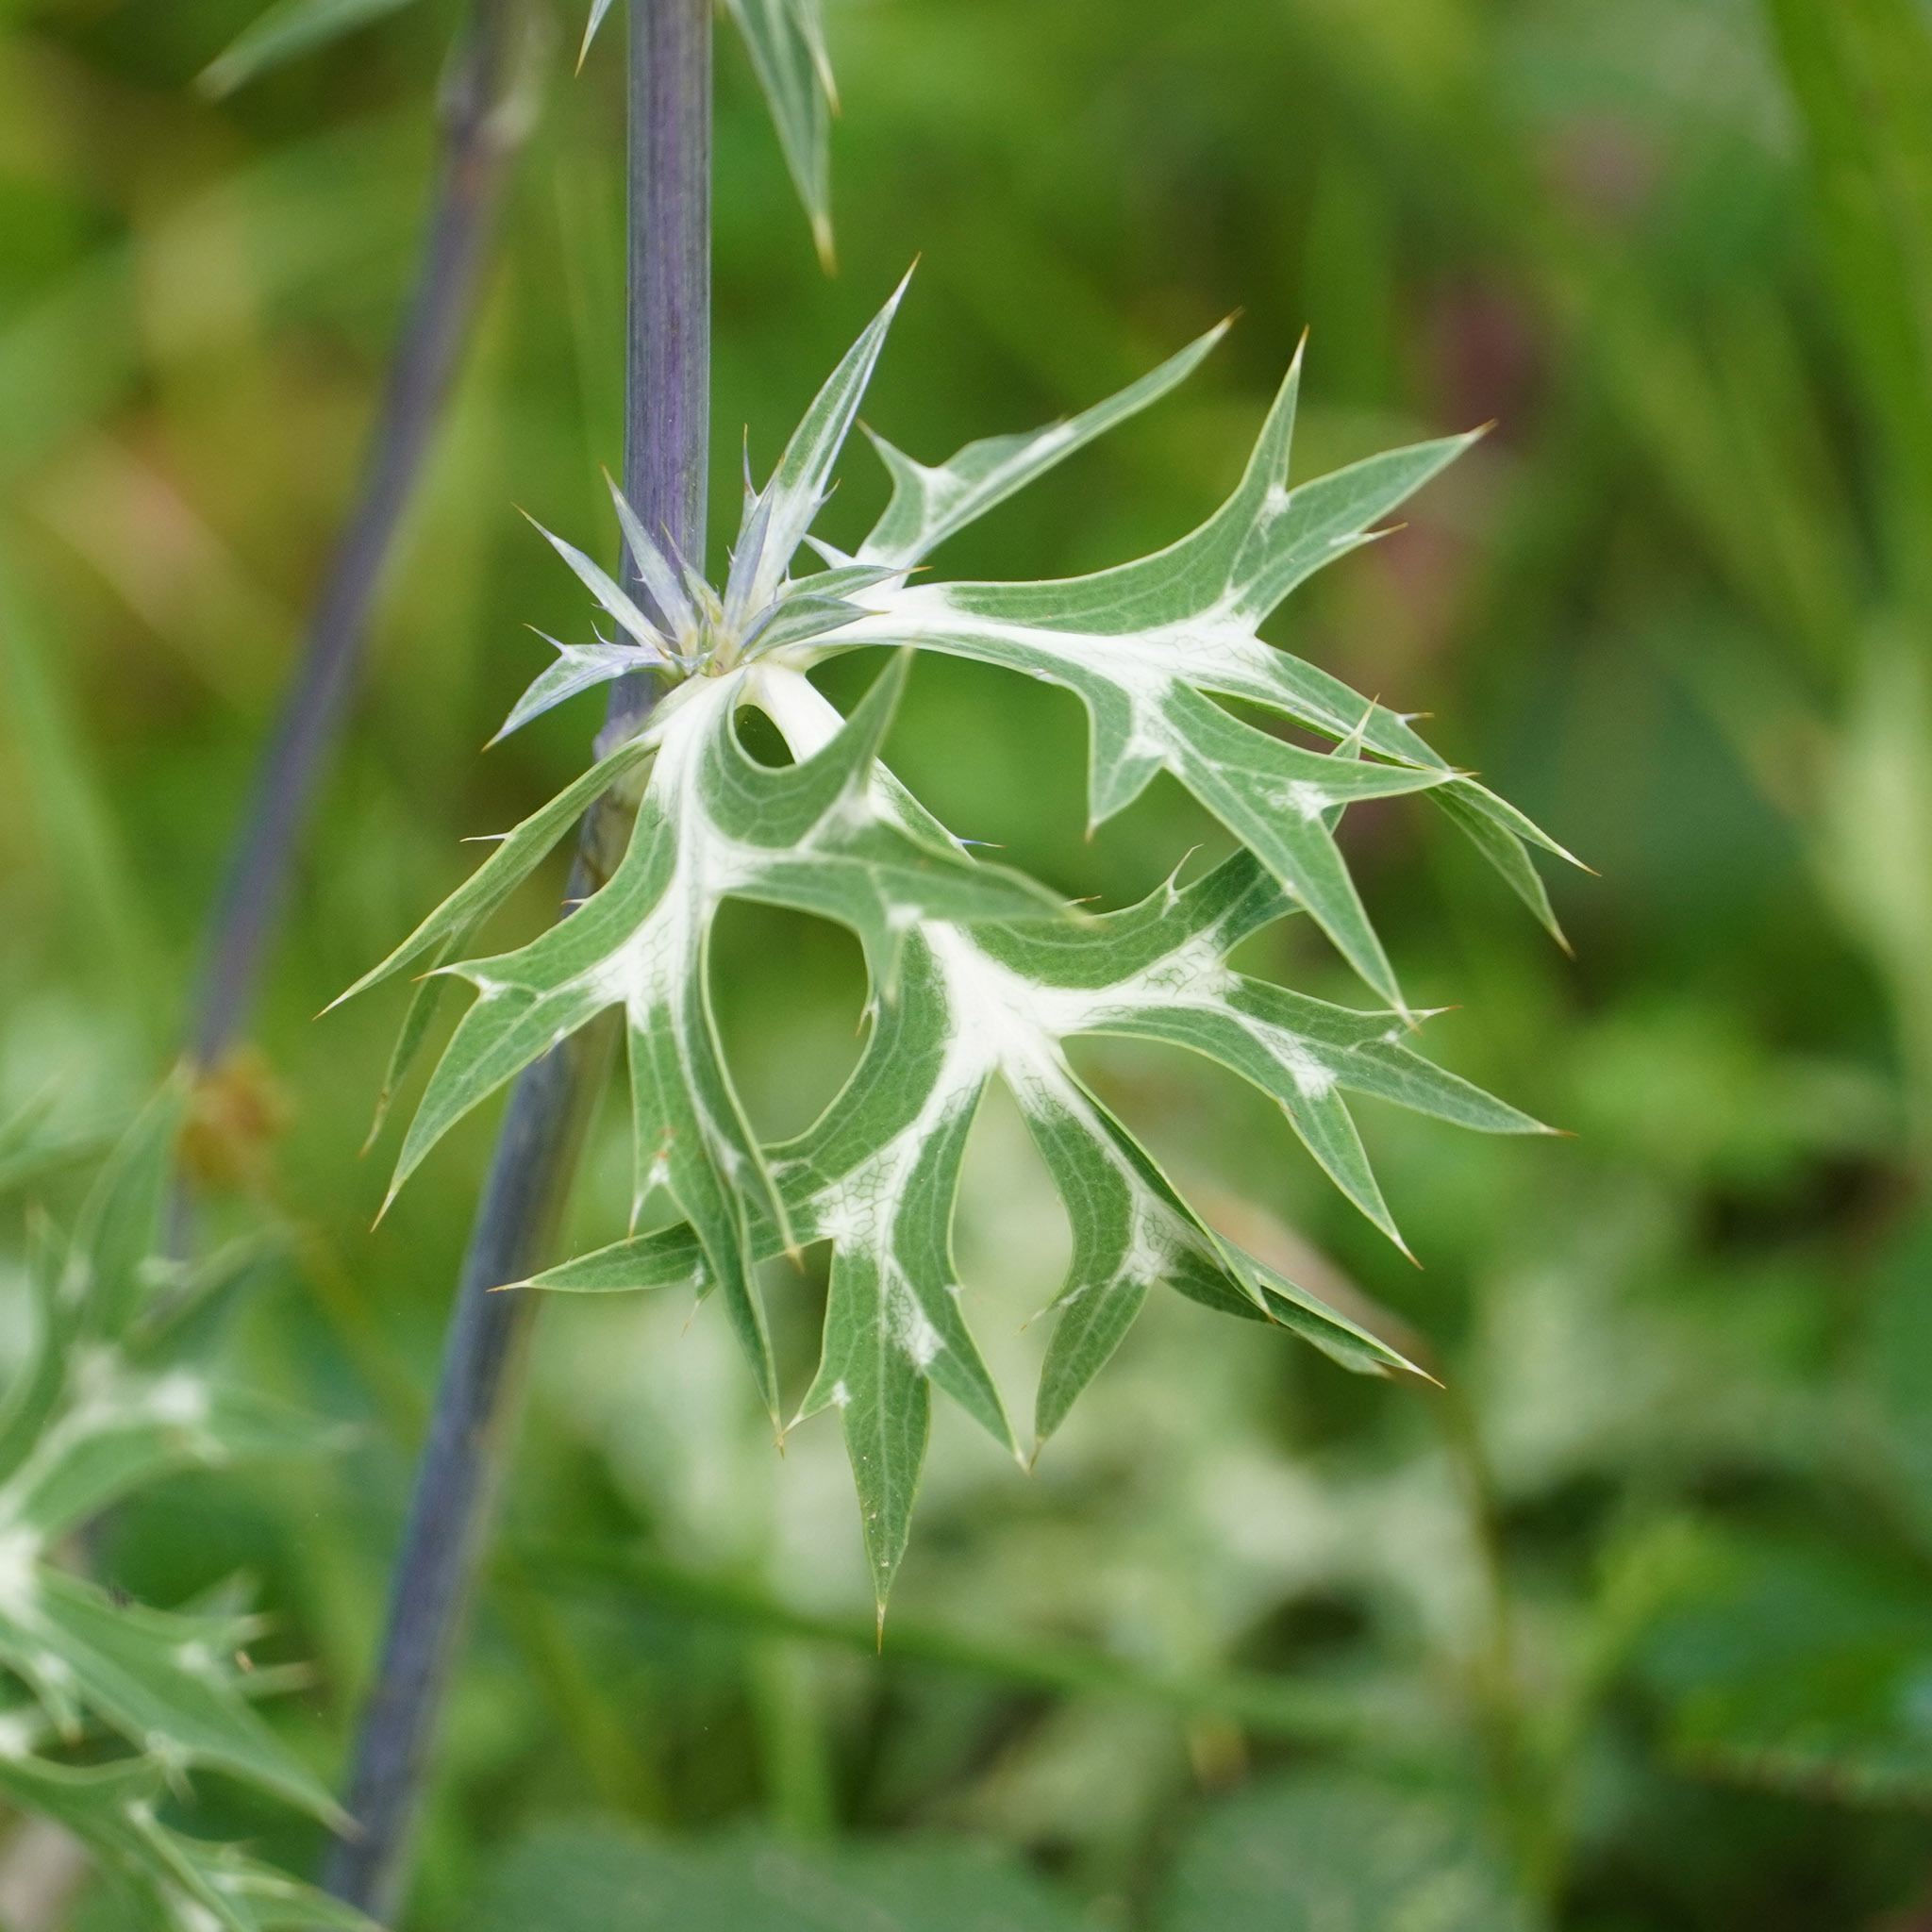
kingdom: Plantae
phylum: Tracheophyta
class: Magnoliopsida
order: Apiales
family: Apiaceae
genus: Eryngium
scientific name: Eryngium bourgatii
